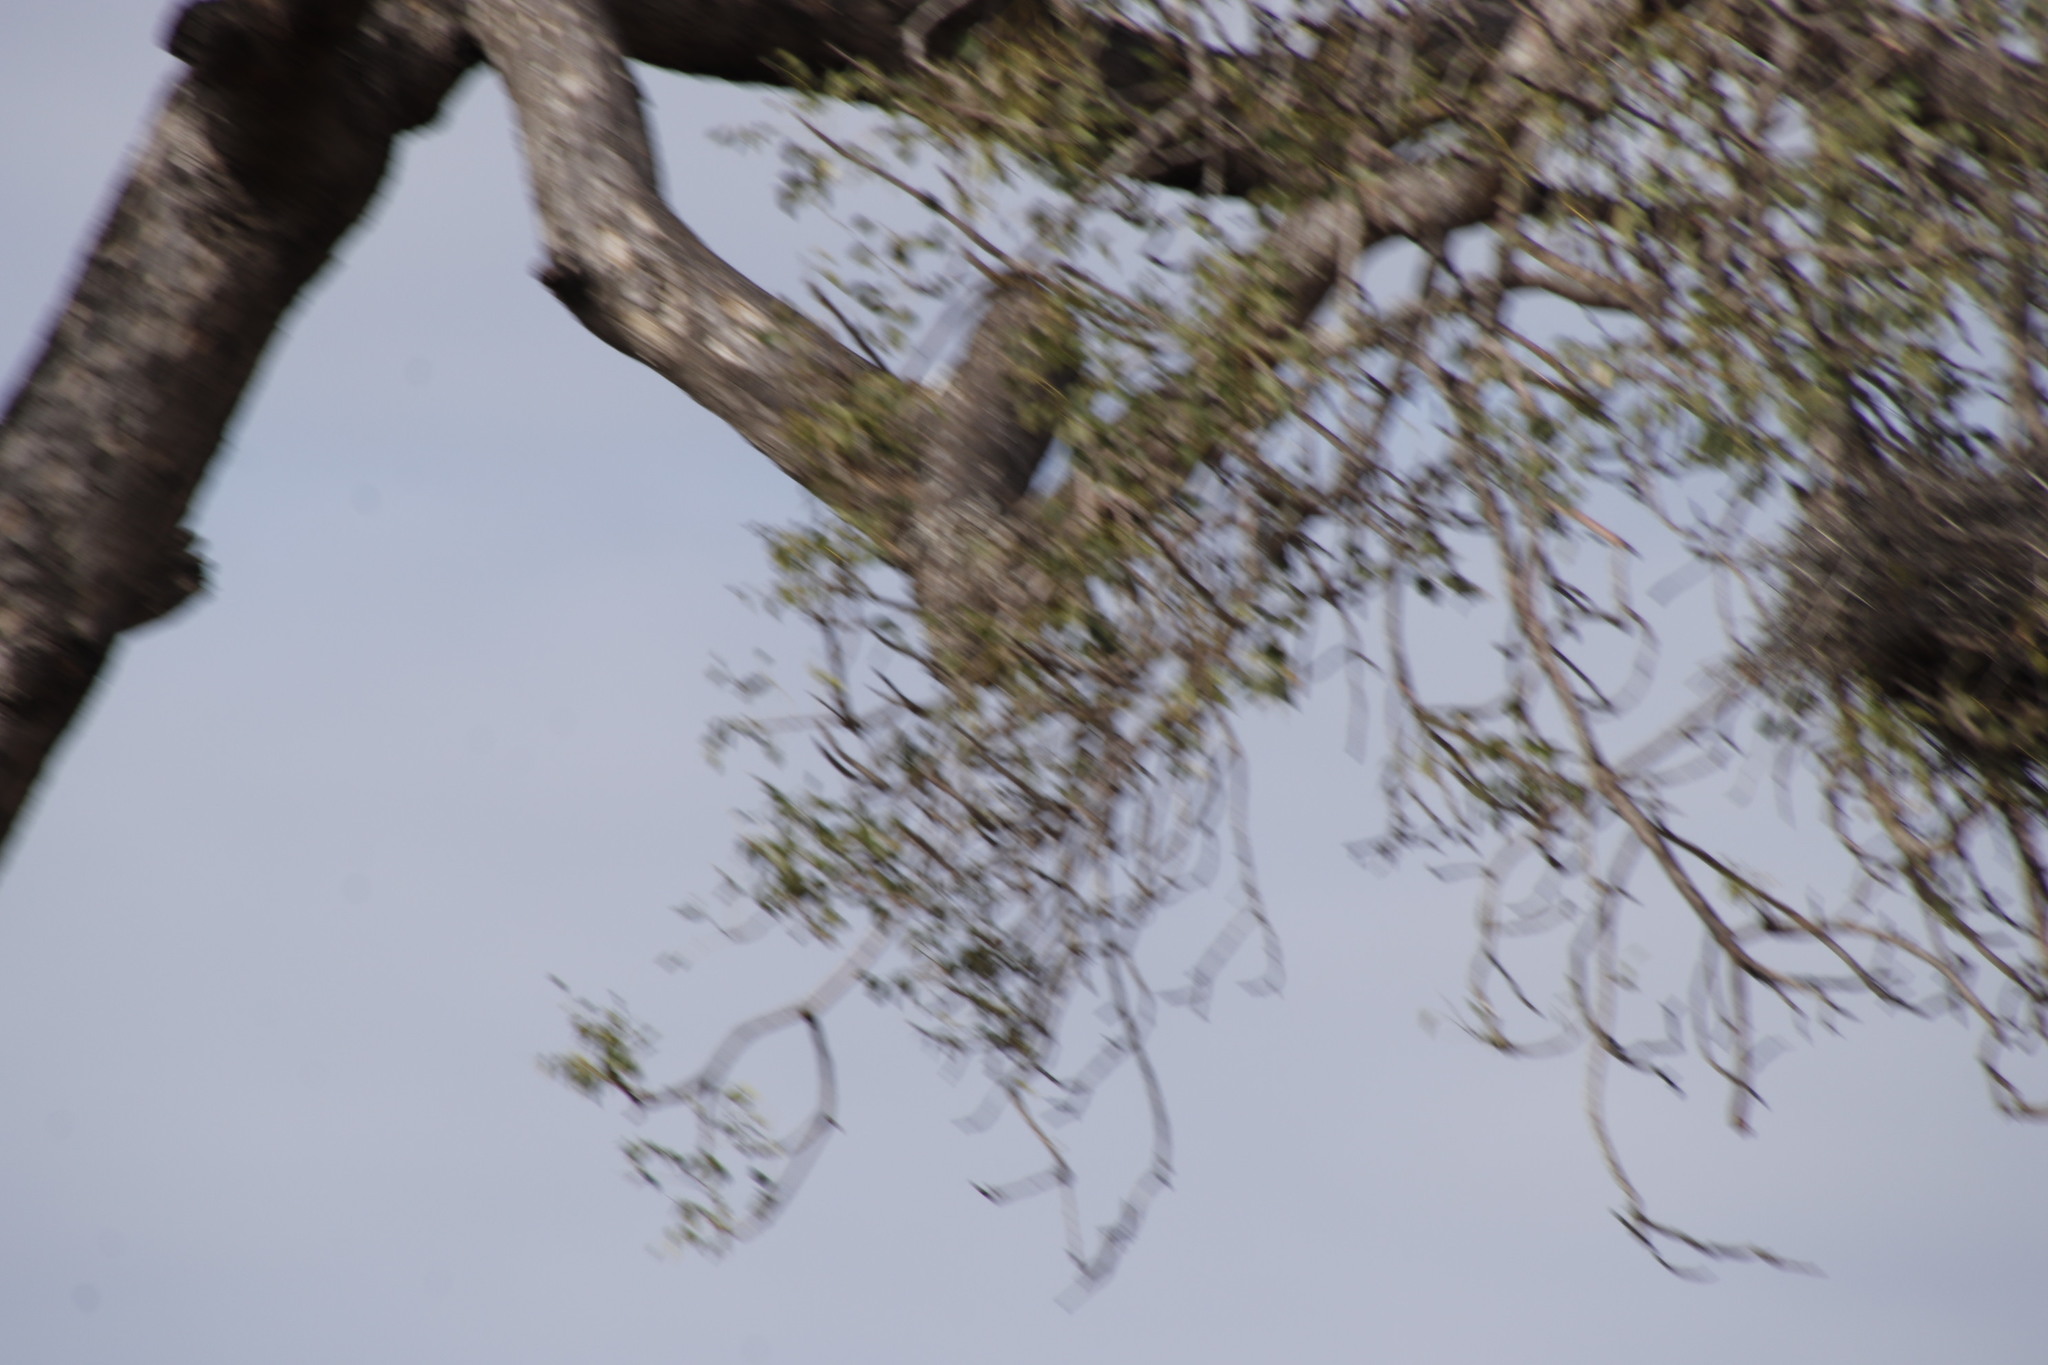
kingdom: Plantae
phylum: Tracheophyta
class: Magnoliopsida
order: Sapindales
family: Anacardiaceae
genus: Sclerocarya
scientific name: Sclerocarya birrea
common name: Marula
